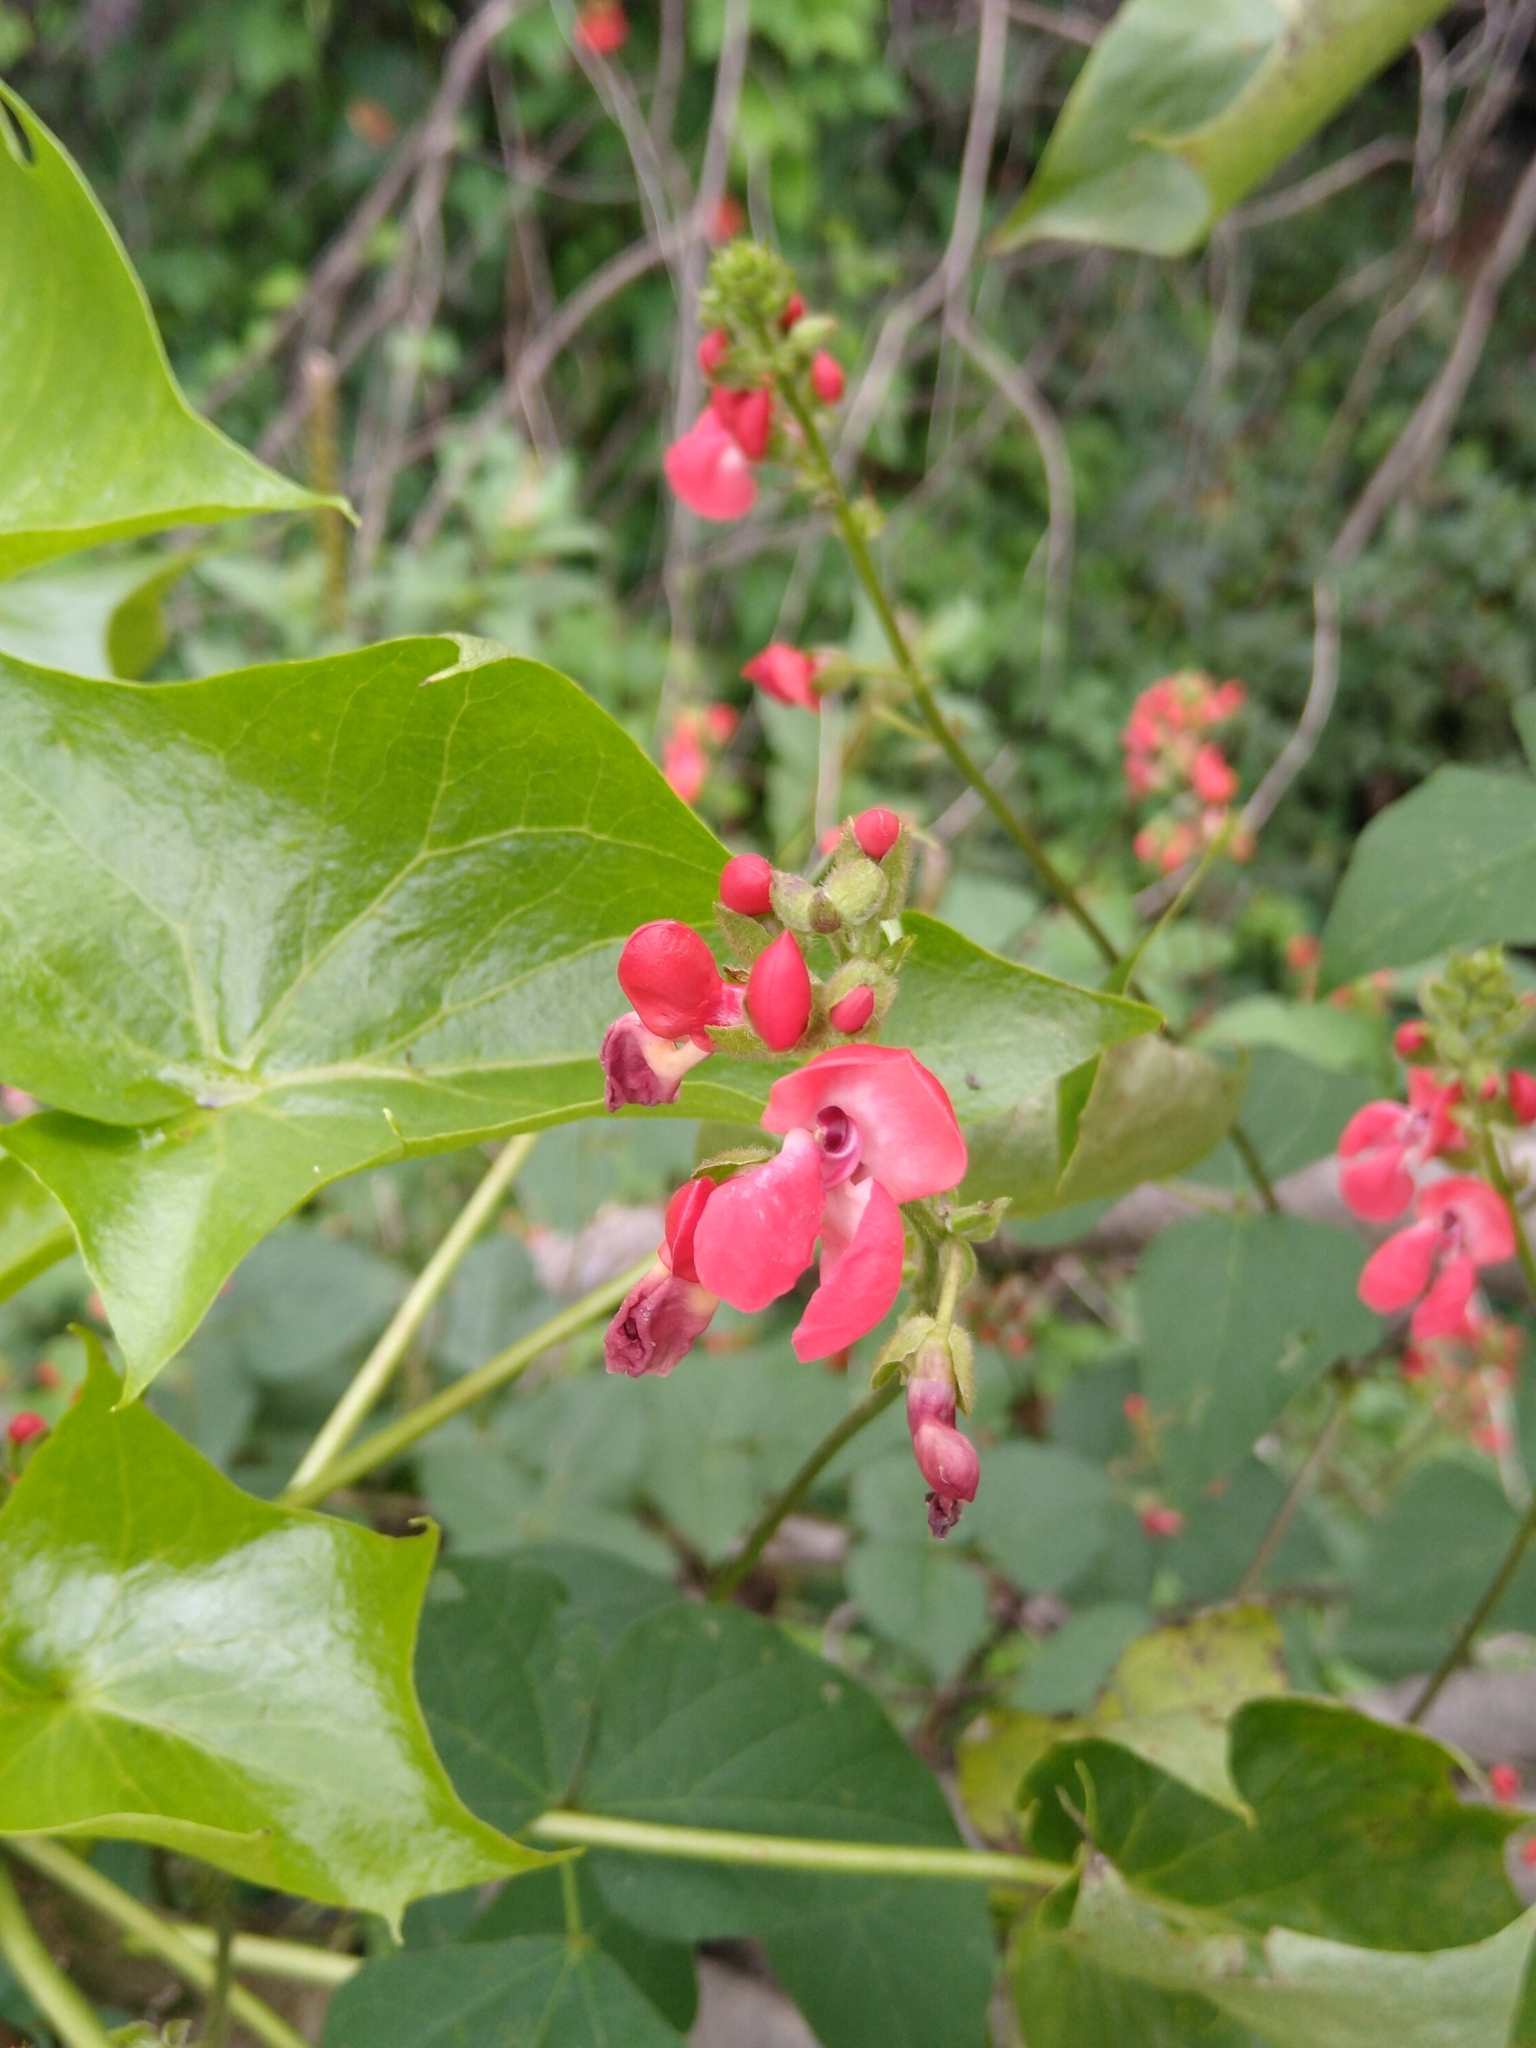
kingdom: Plantae
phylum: Tracheophyta
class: Magnoliopsida
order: Fabales
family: Fabaceae
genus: Phaseolus
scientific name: Phaseolus coccineus
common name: Runner bean
